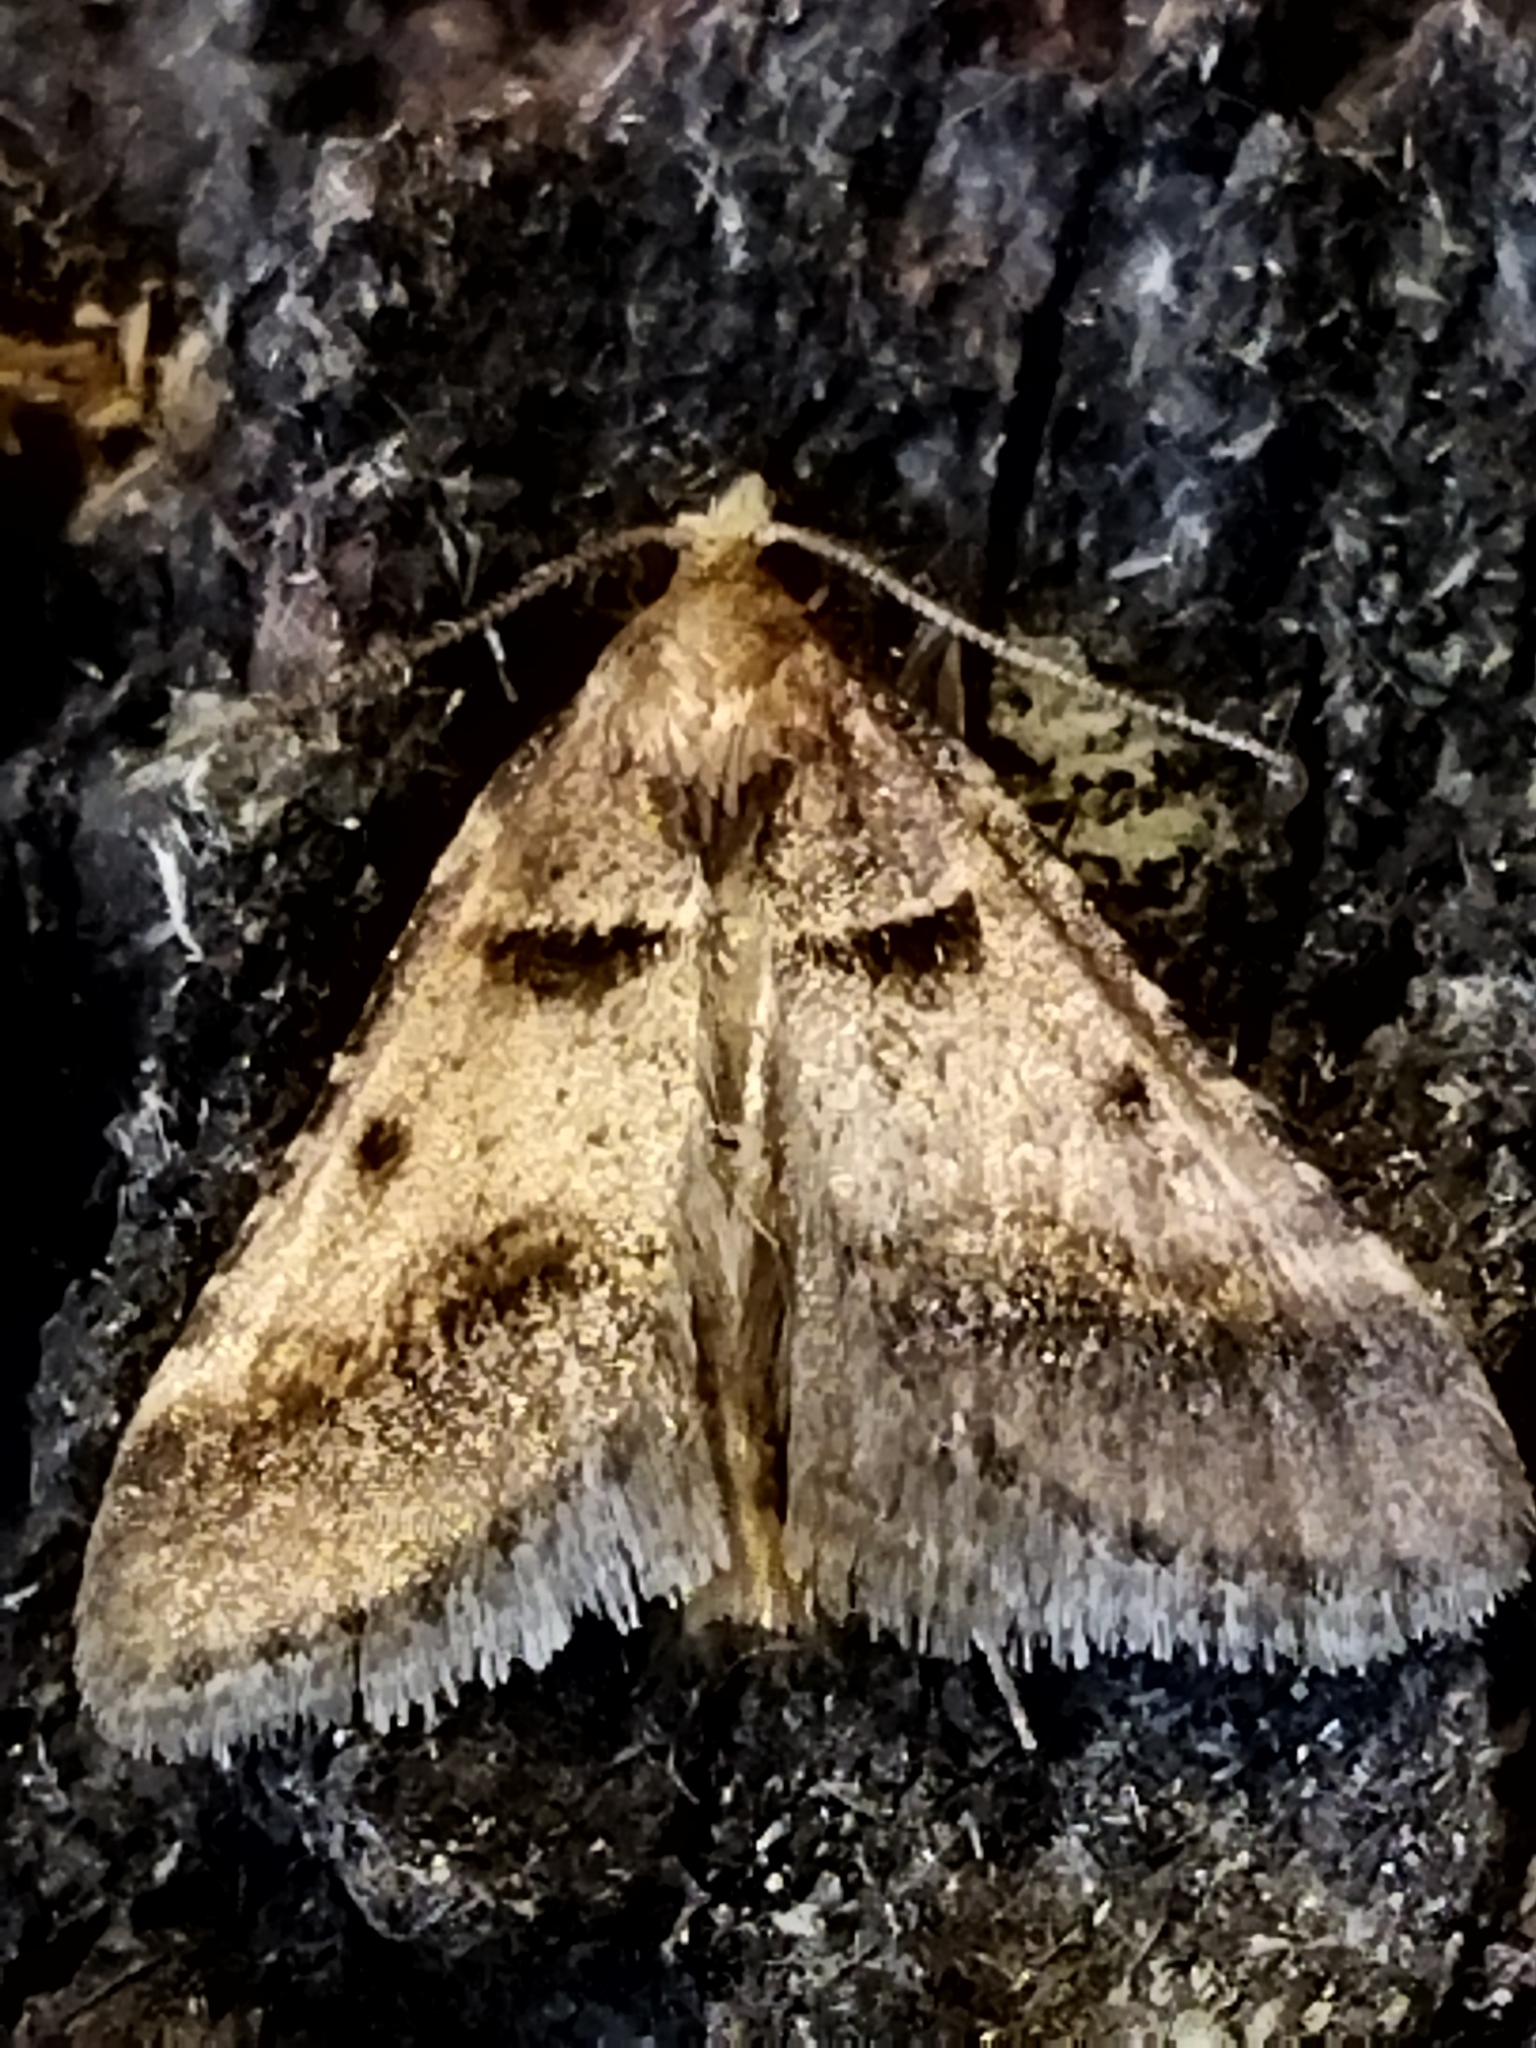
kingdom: Animalia
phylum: Arthropoda
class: Insecta
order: Lepidoptera
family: Pyralidae
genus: Stemmatophora
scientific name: Stemmatophora brunnealis
